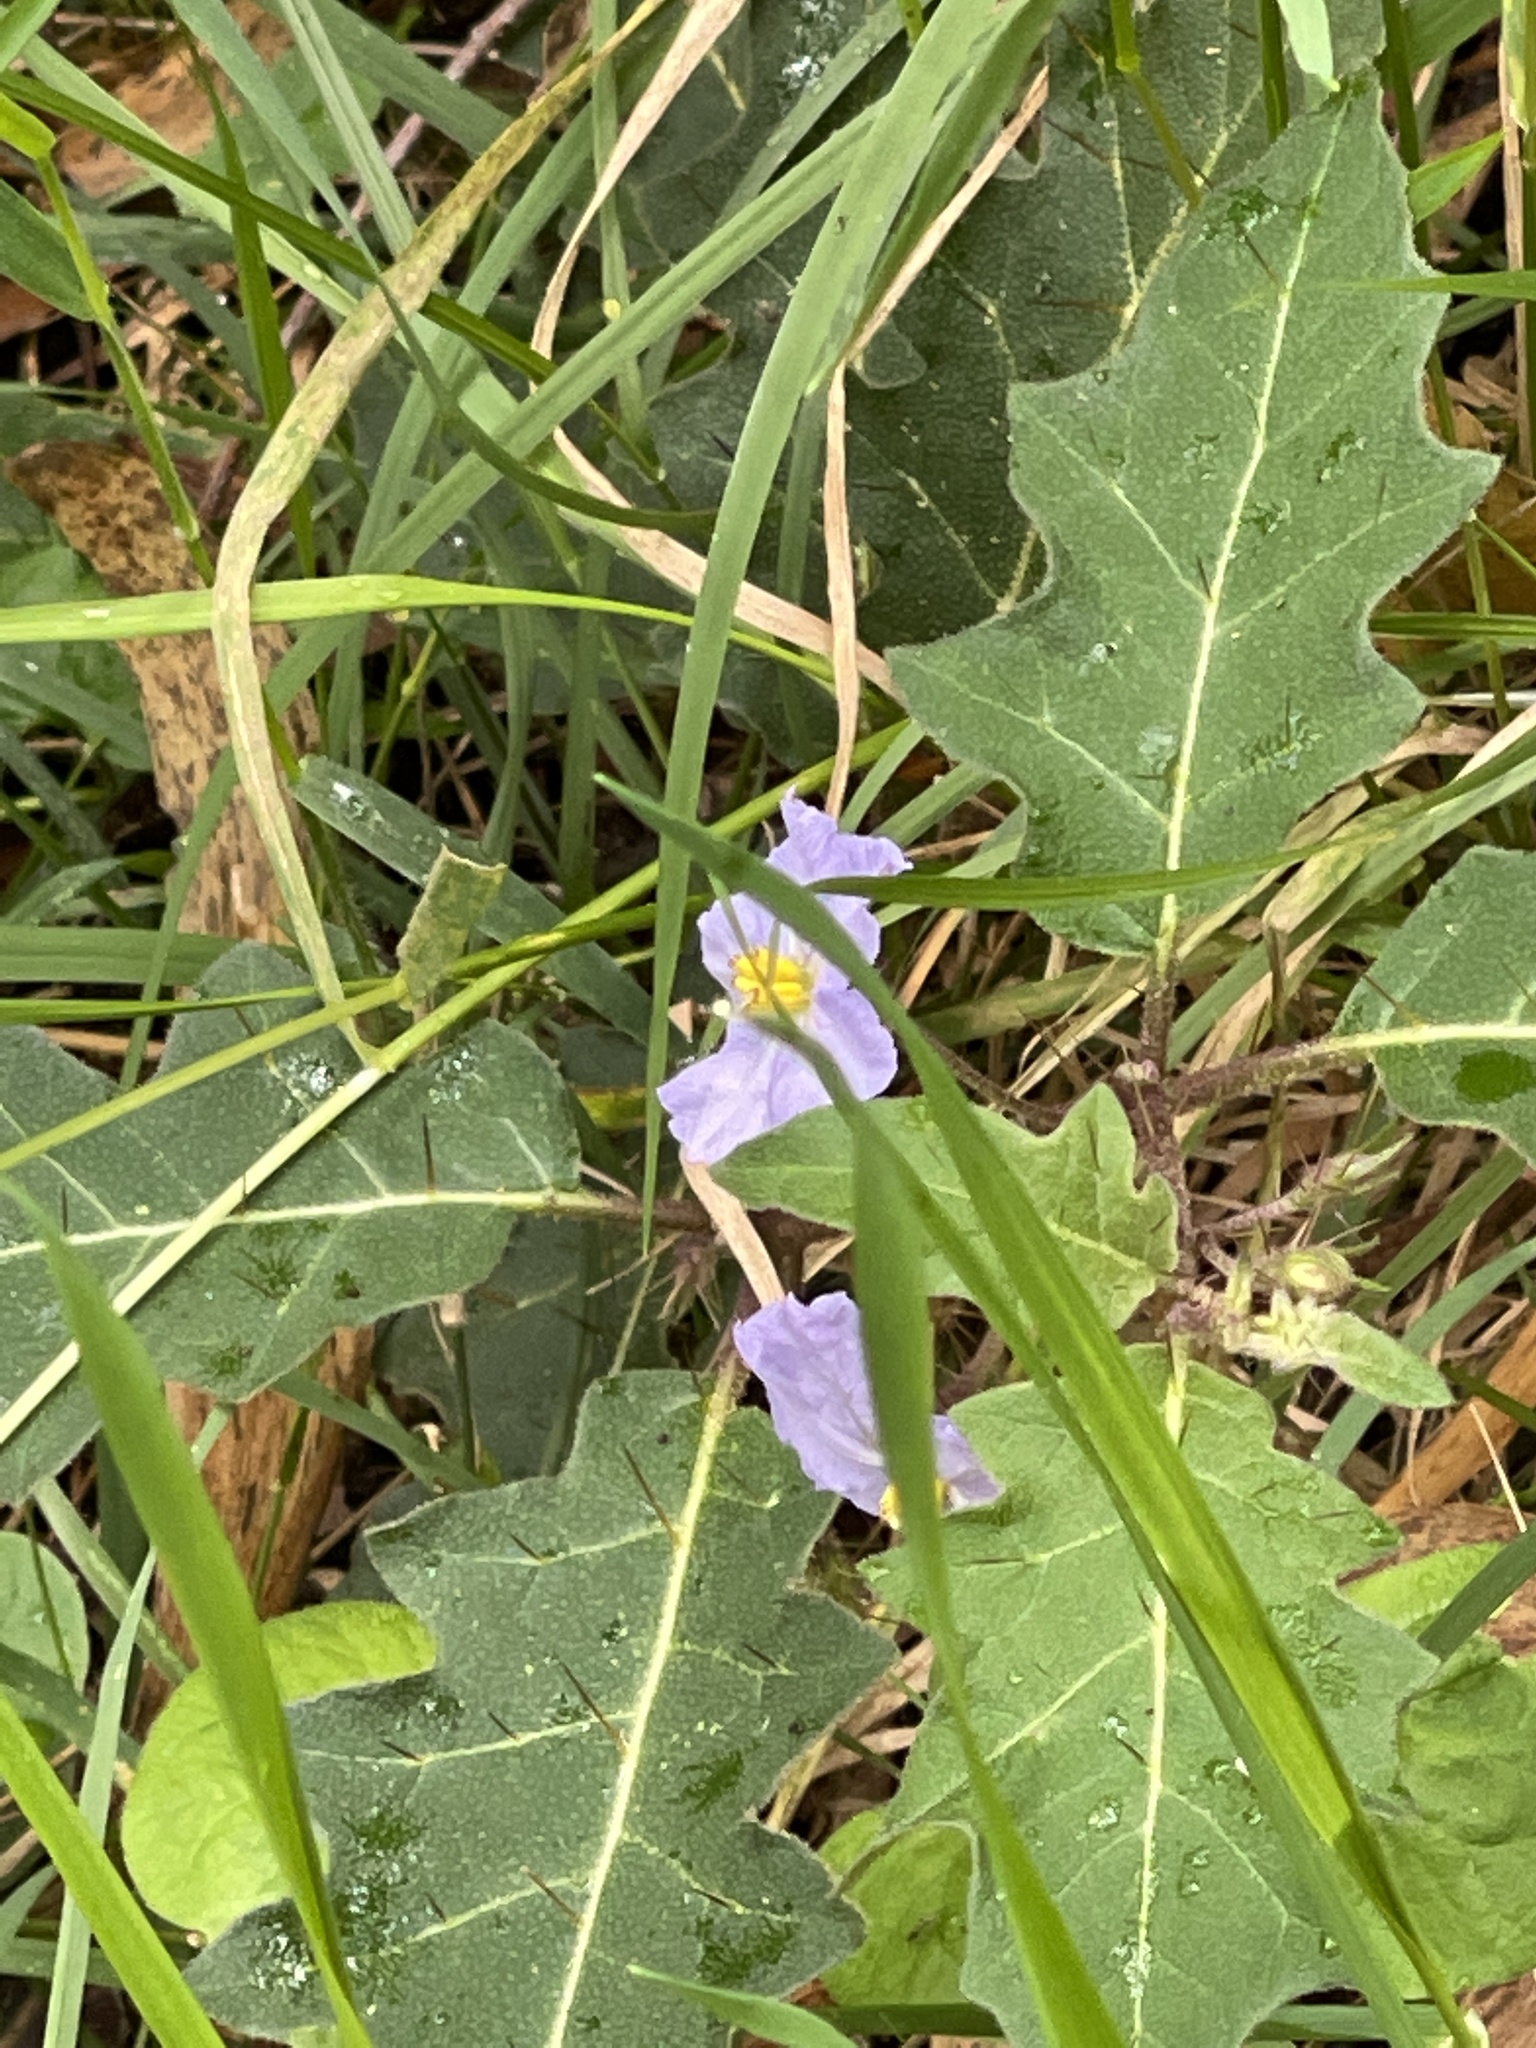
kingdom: Plantae
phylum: Tracheophyta
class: Magnoliopsida
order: Solanales
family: Solanaceae
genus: Solanum
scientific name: Solanum pungetium
